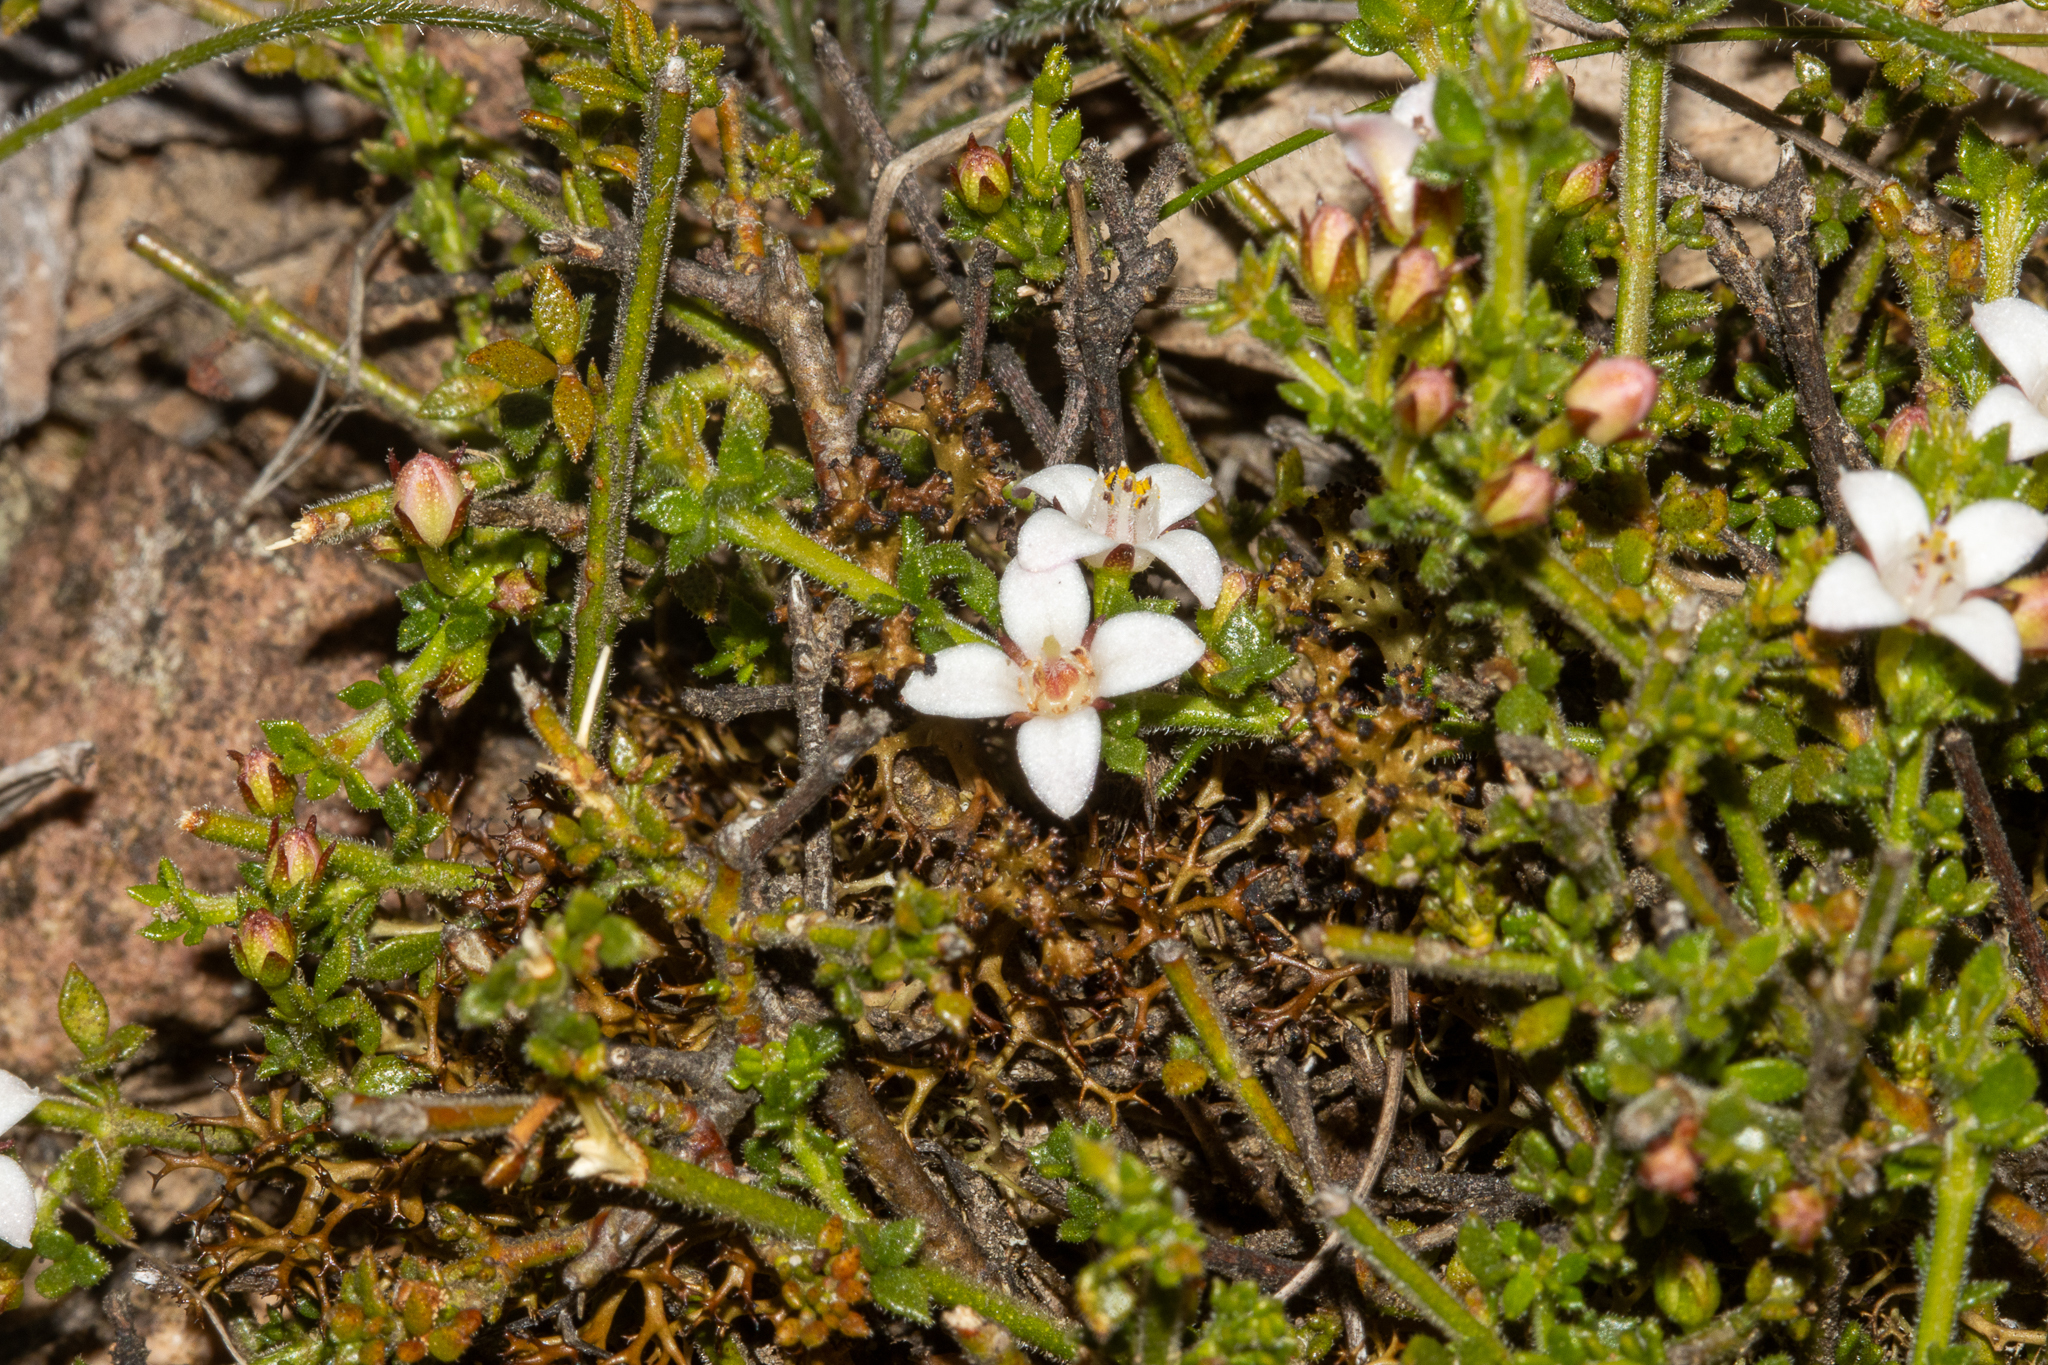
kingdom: Plantae
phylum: Tracheophyta
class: Magnoliopsida
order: Sapindales
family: Rutaceae
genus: Cyanothamnus
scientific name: Cyanothamnus nanus
